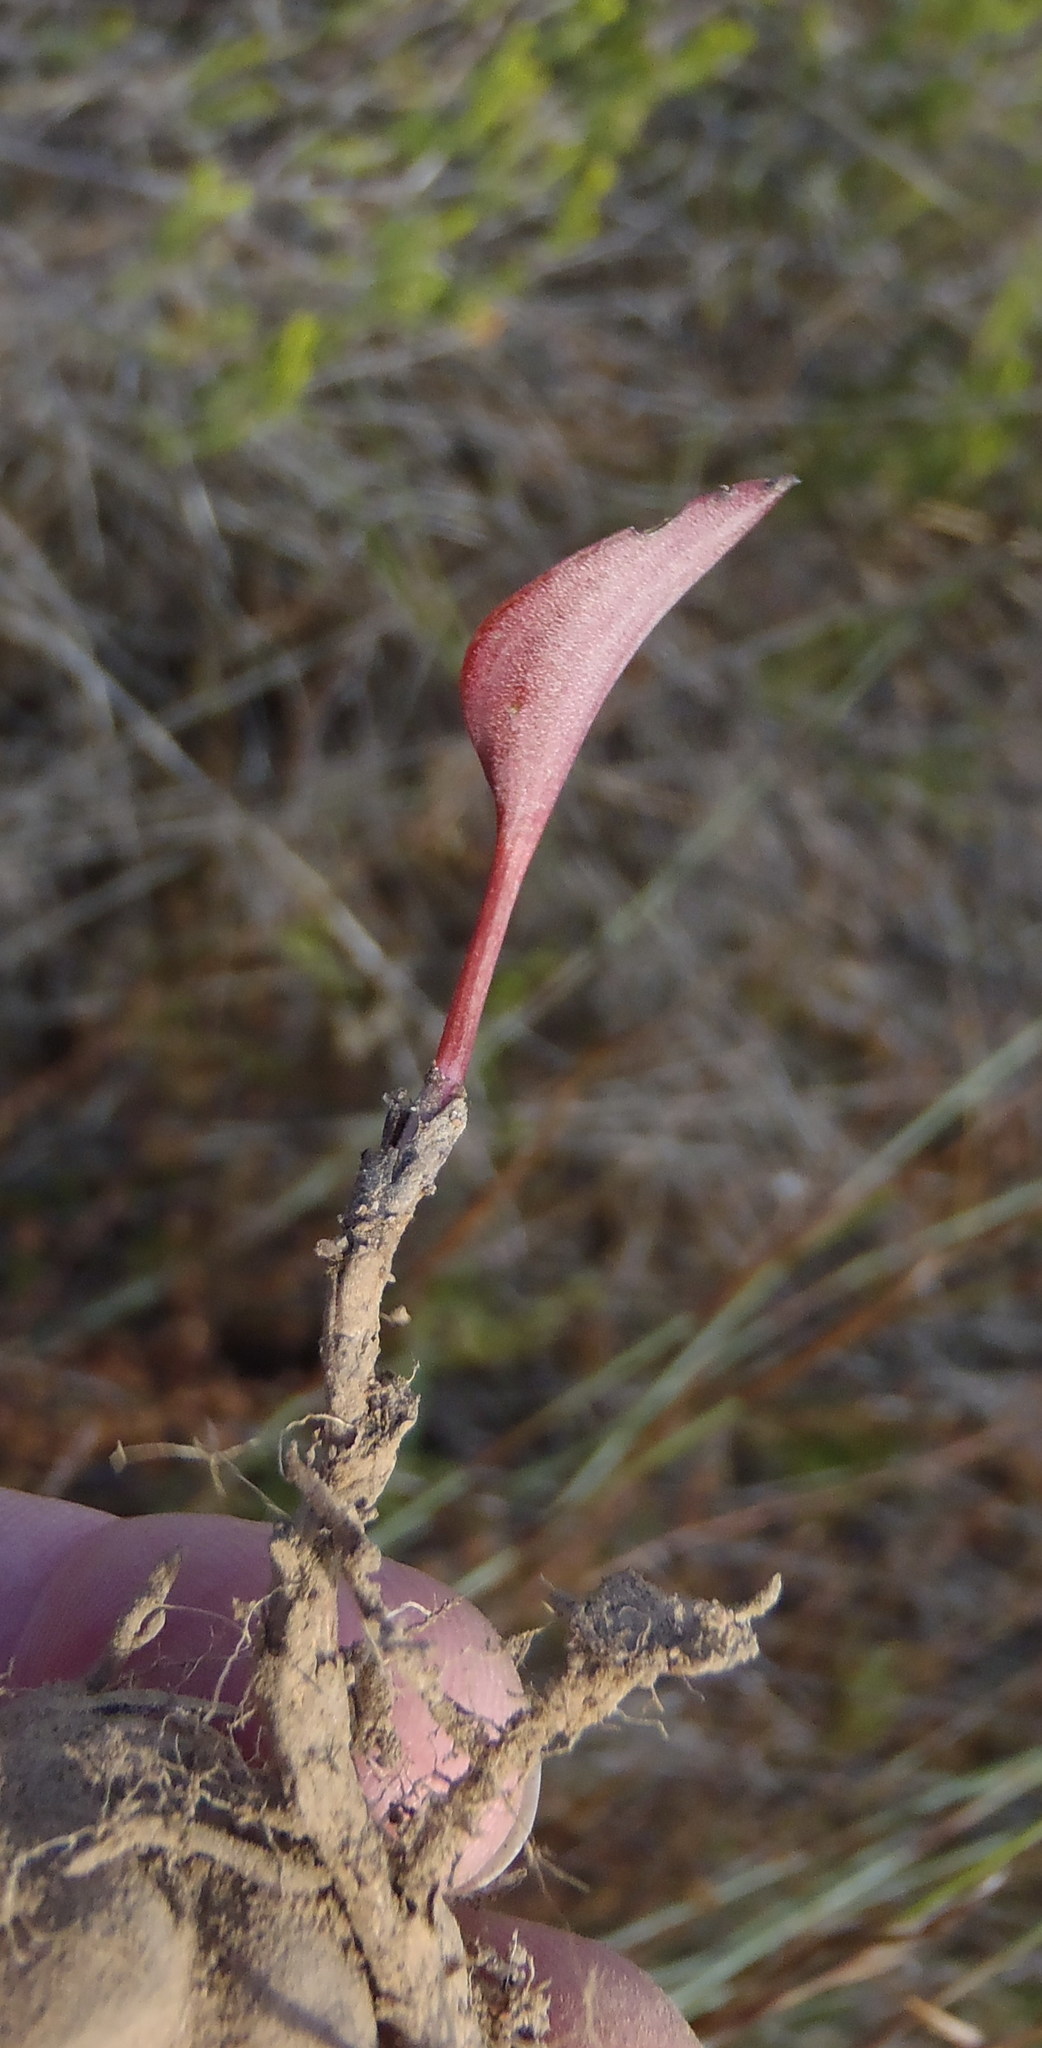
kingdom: Plantae
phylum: Tracheophyta
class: Liliopsida
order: Asparagales
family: Asparagaceae
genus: Eriospermum
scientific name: Eriospermum cordiforme
